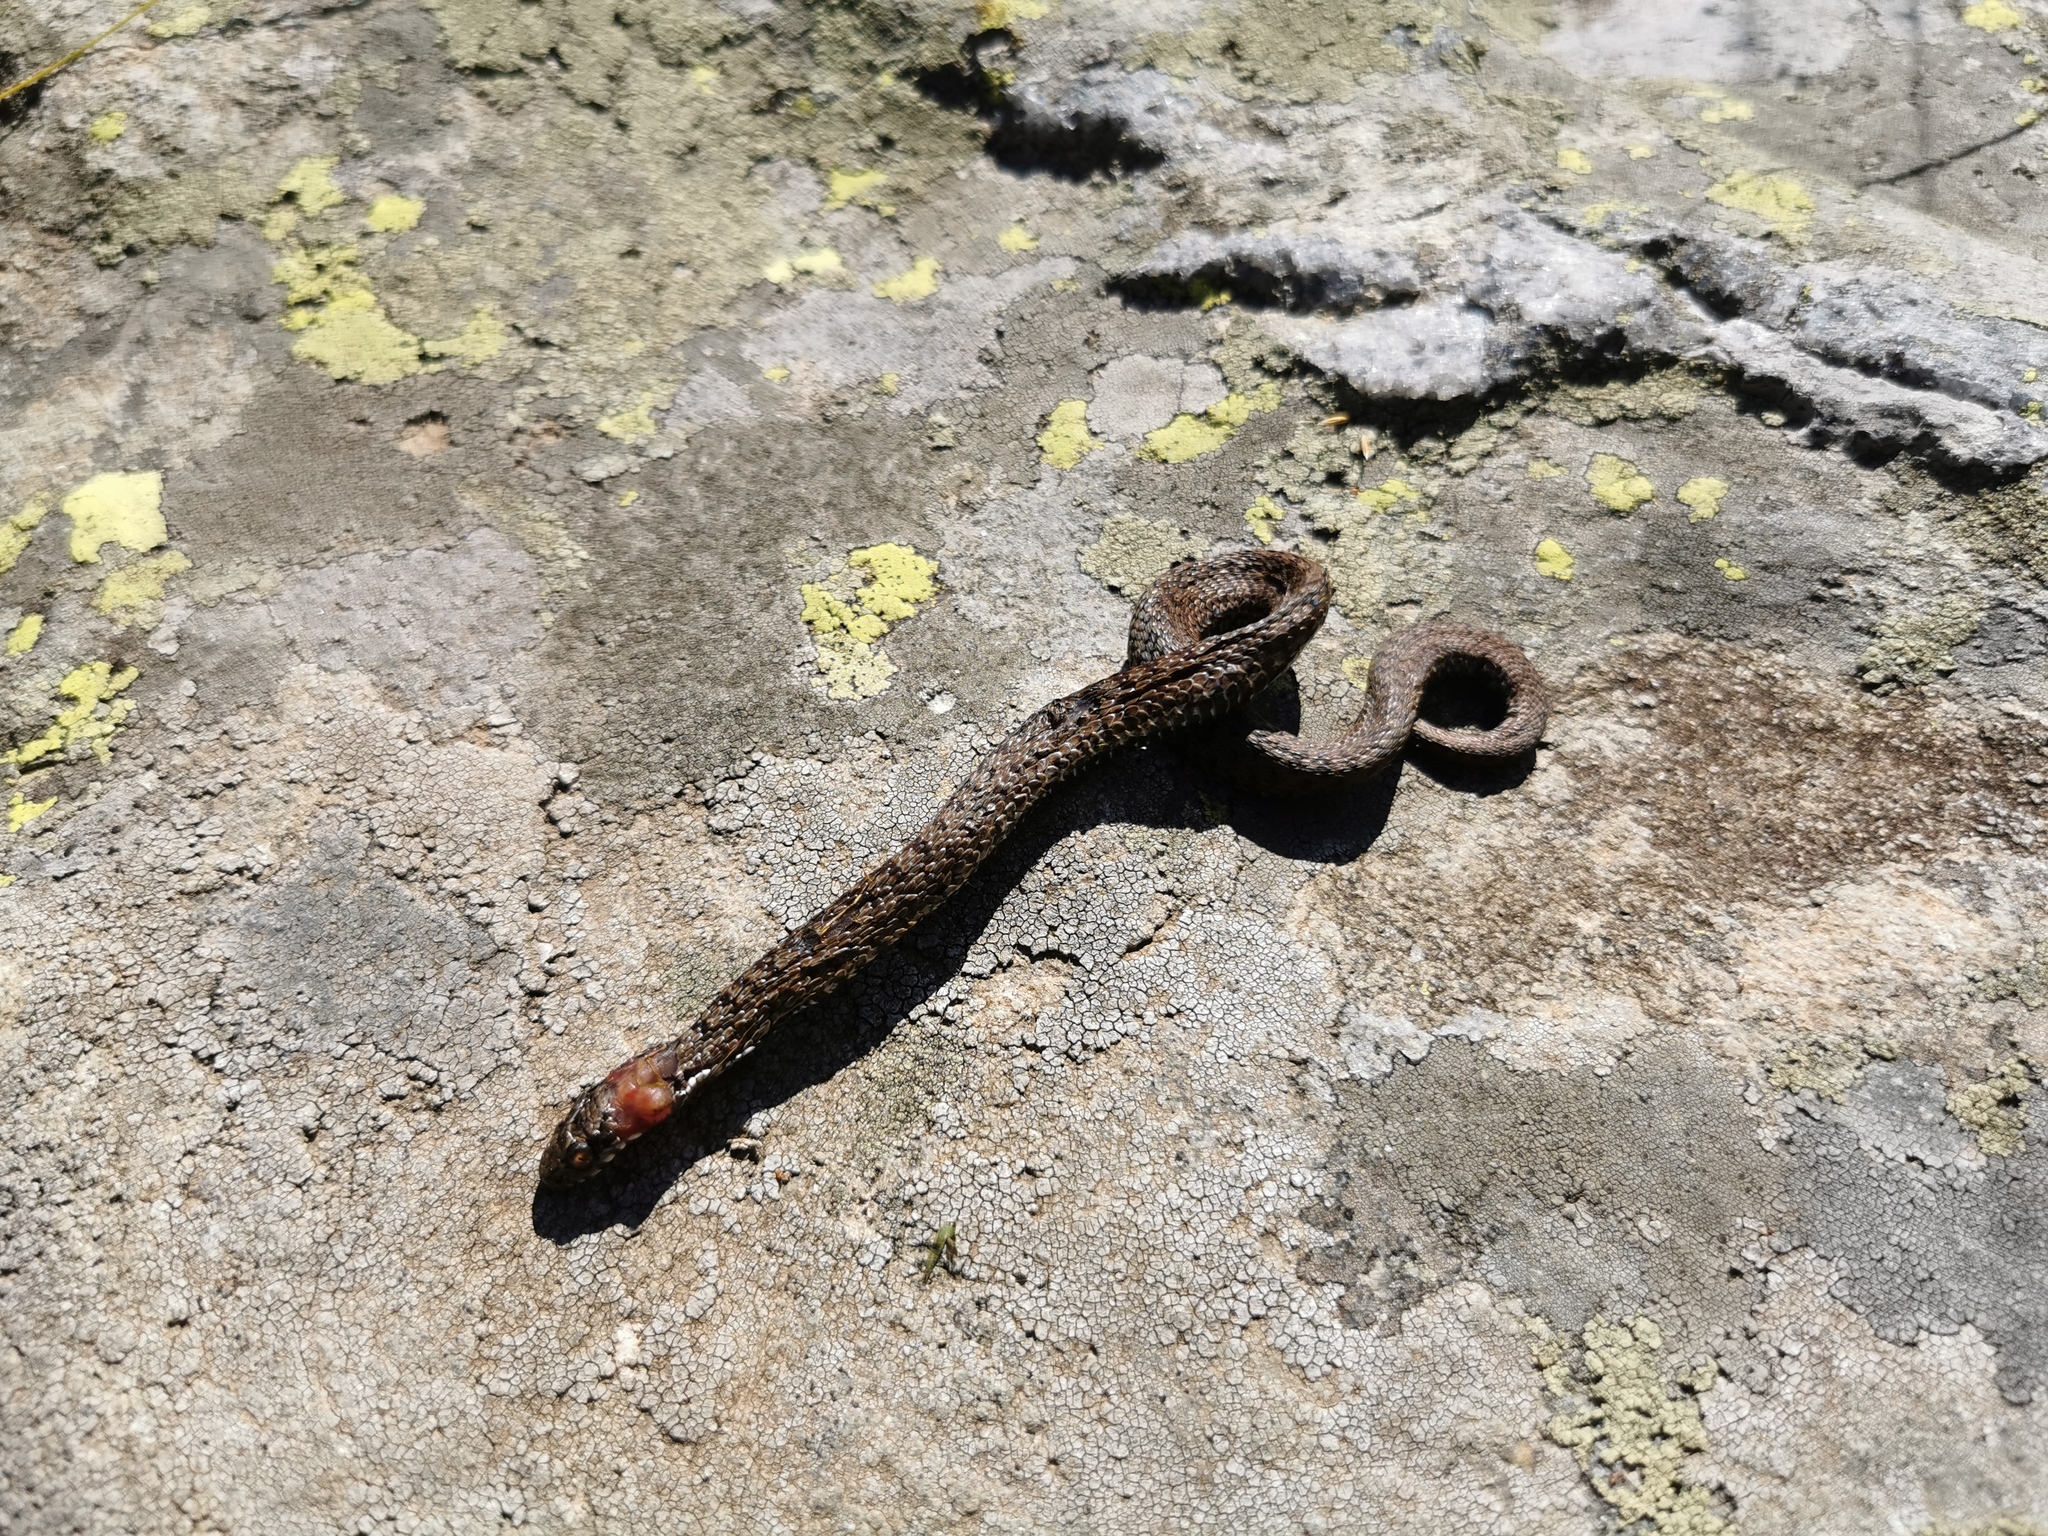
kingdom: Animalia
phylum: Chordata
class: Squamata
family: Viperidae
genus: Vipera
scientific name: Vipera walser
